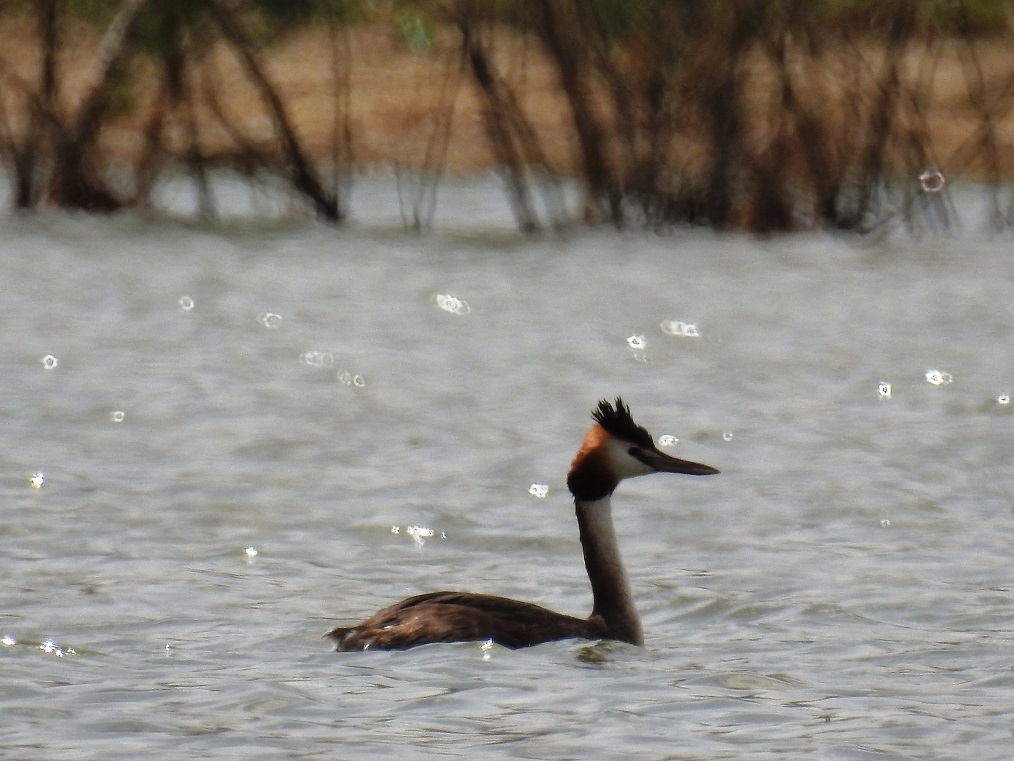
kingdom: Animalia
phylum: Chordata
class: Aves
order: Podicipediformes
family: Podicipedidae
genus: Podiceps
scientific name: Podiceps cristatus
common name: Great crested grebe
